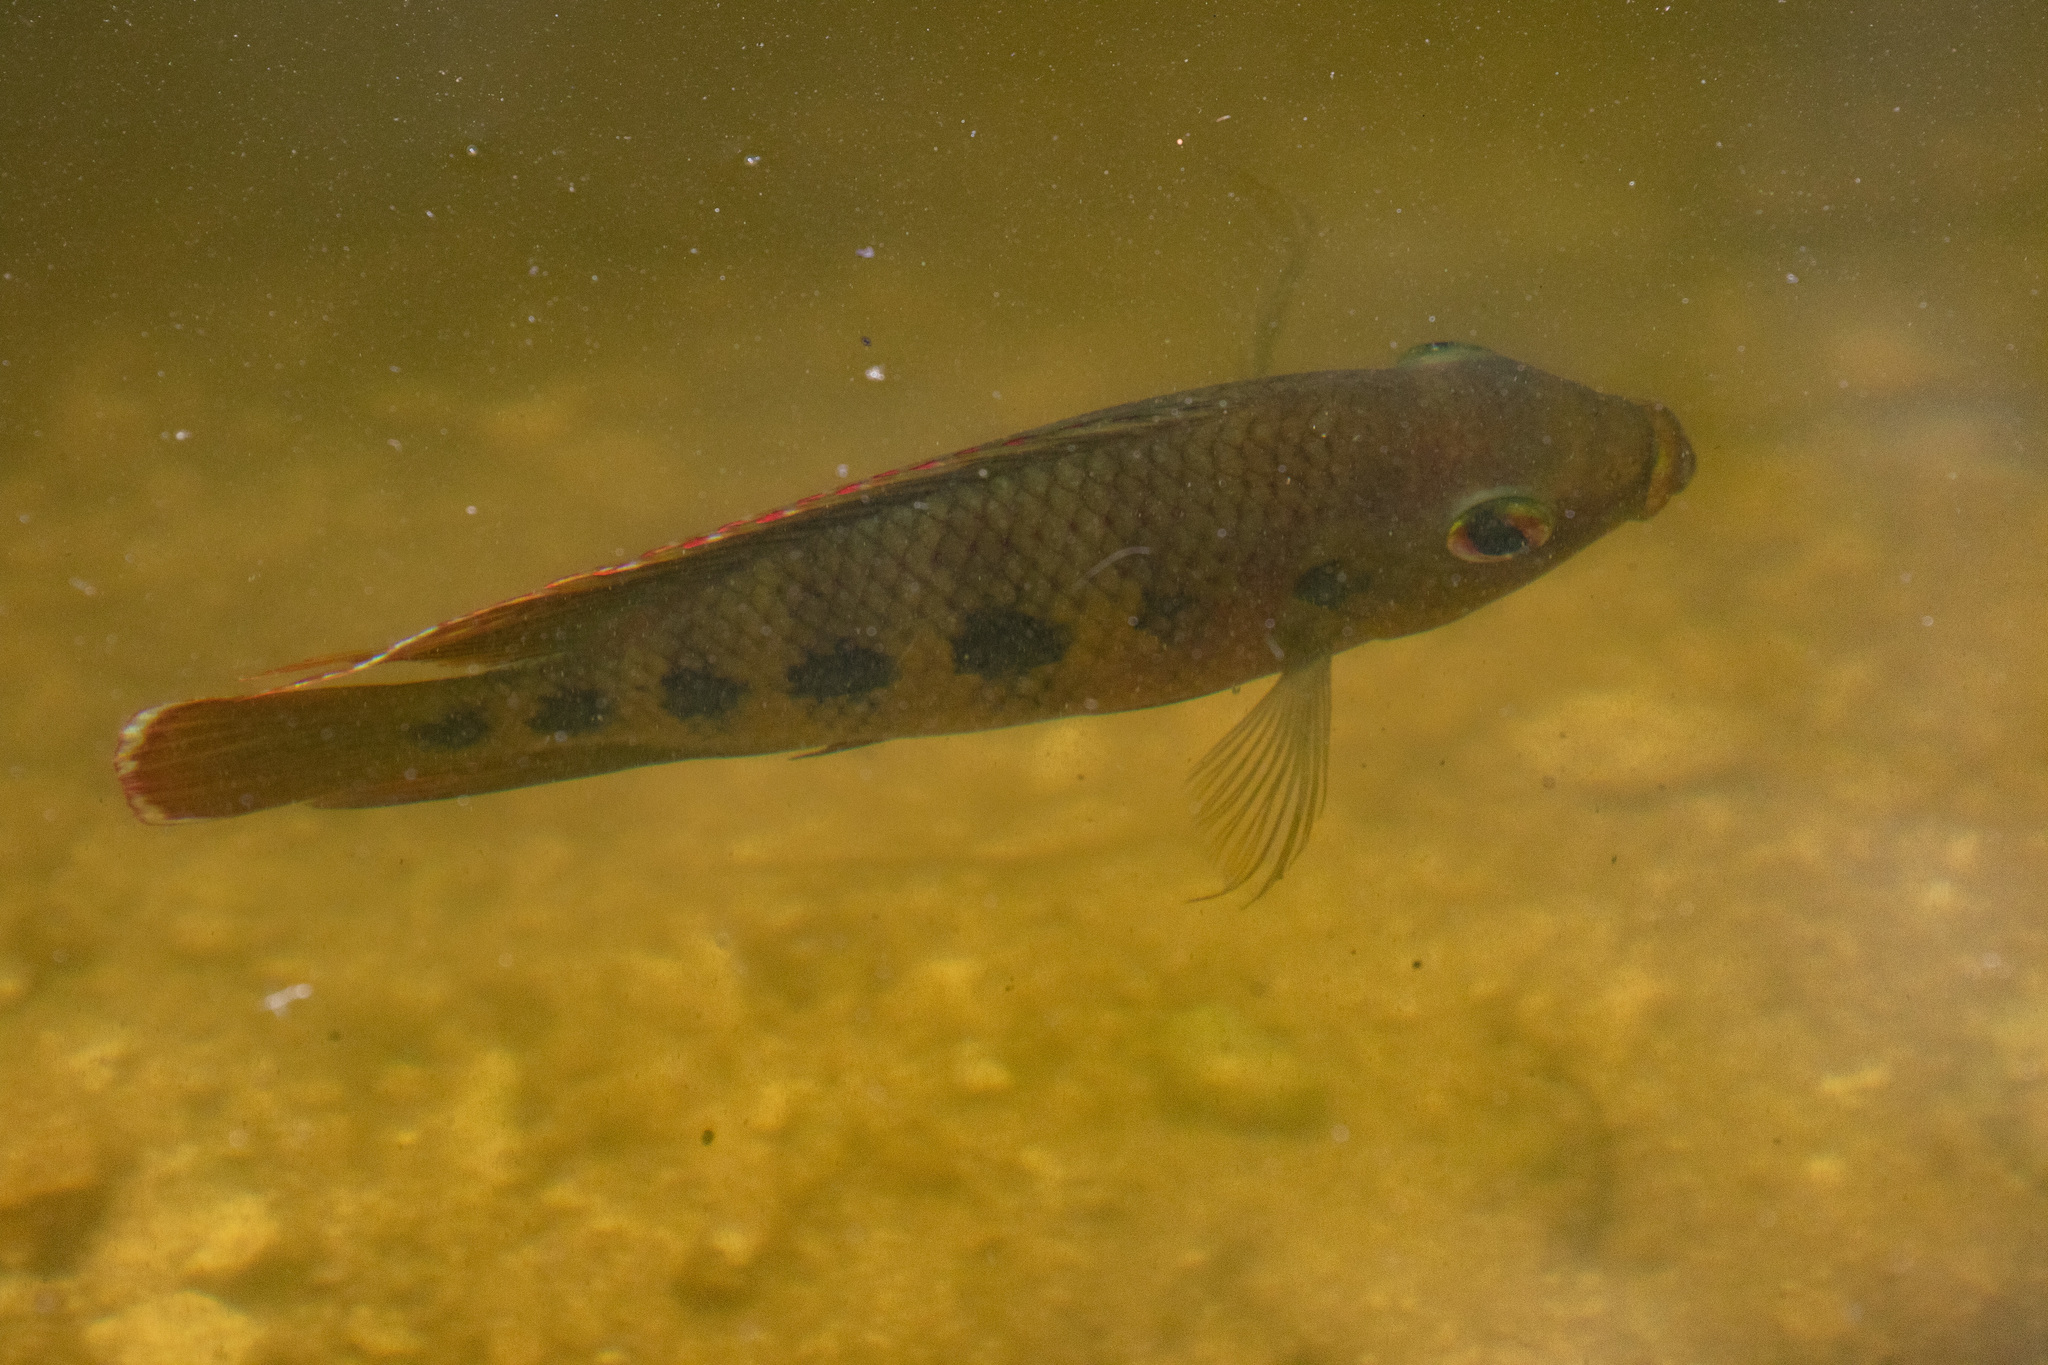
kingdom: Animalia
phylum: Chordata
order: Perciformes
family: Cichlidae
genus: Pelmatolapia
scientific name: Pelmatolapia mariae
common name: Spotted tilapia
